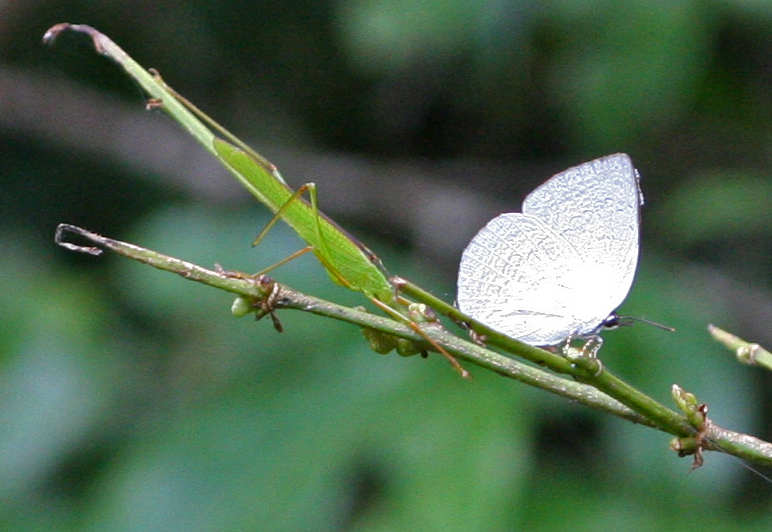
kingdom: Animalia
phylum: Arthropoda
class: Insecta
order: Lepidoptera
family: Lycaenidae
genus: Curetis
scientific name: Curetis saronis
